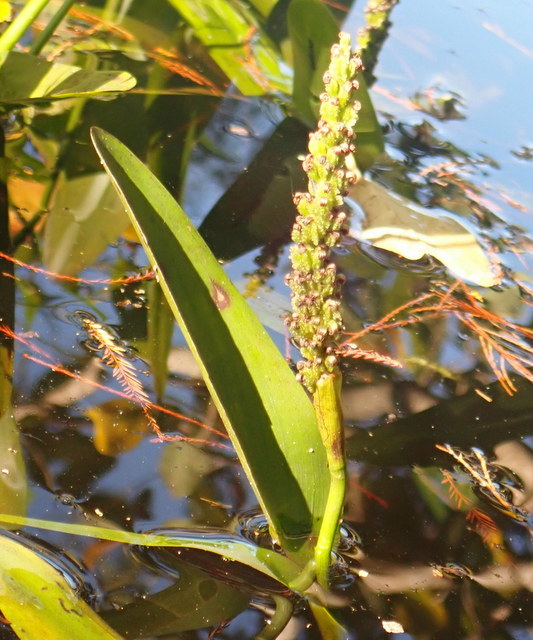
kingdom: Plantae
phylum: Tracheophyta
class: Liliopsida
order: Commelinales
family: Pontederiaceae
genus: Pontederia
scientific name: Pontederia cordata
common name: Pickerelweed
